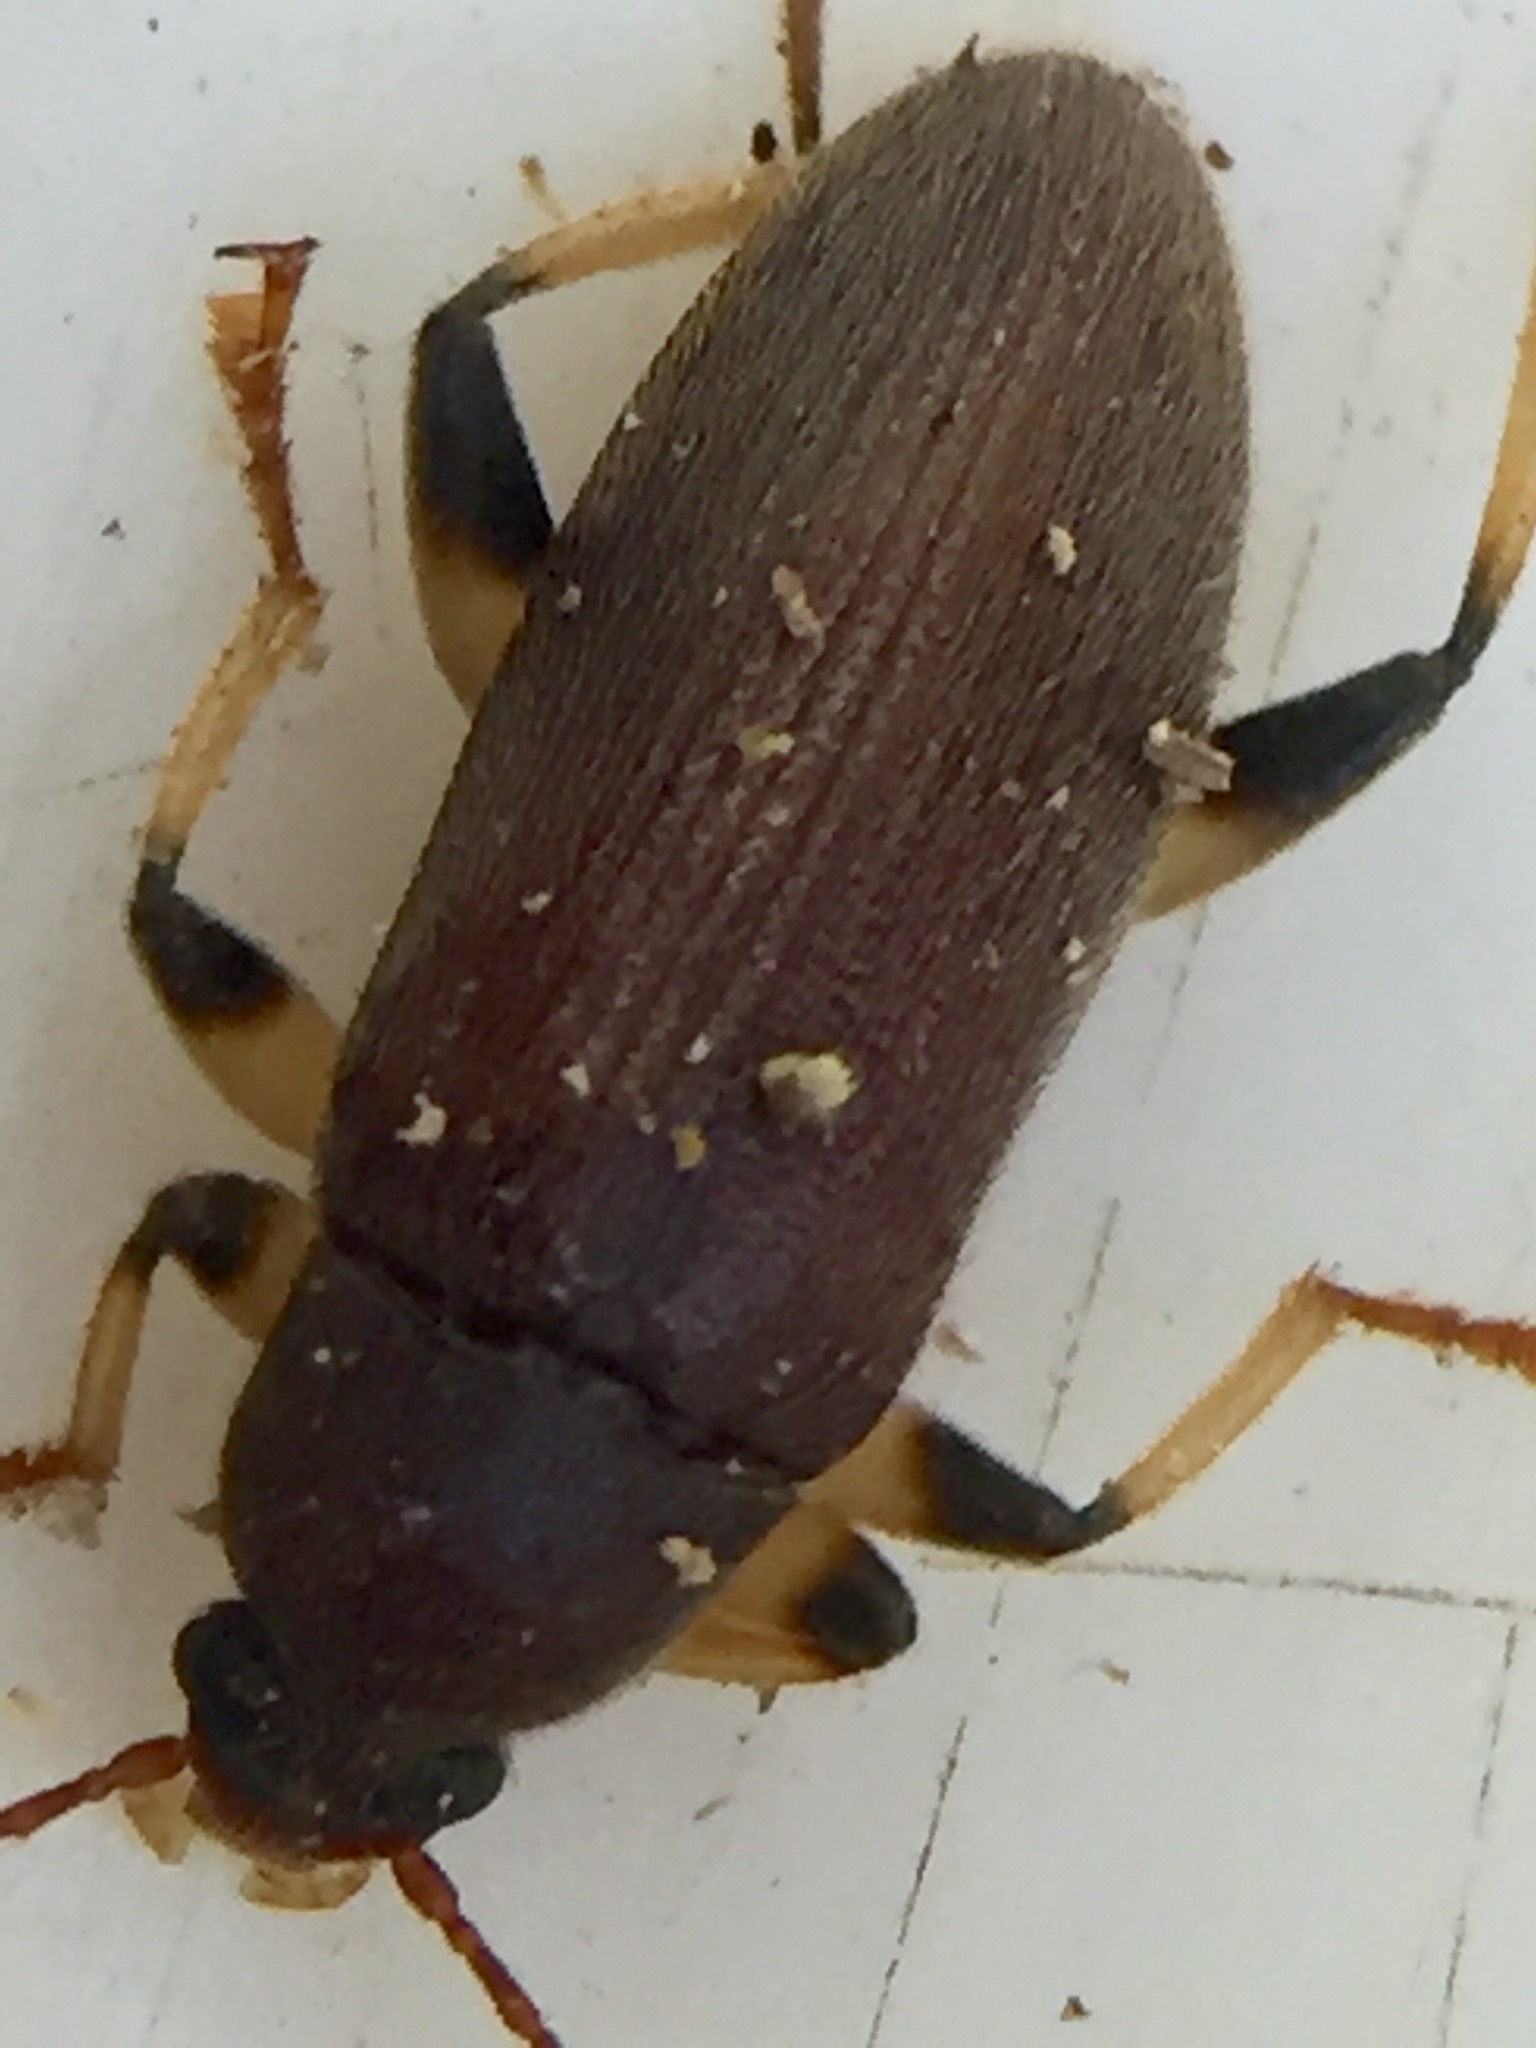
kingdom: Animalia
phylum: Arthropoda
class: Insecta
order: Coleoptera
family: Tenebrionidae
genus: Homotrysis
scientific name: Homotrysis
